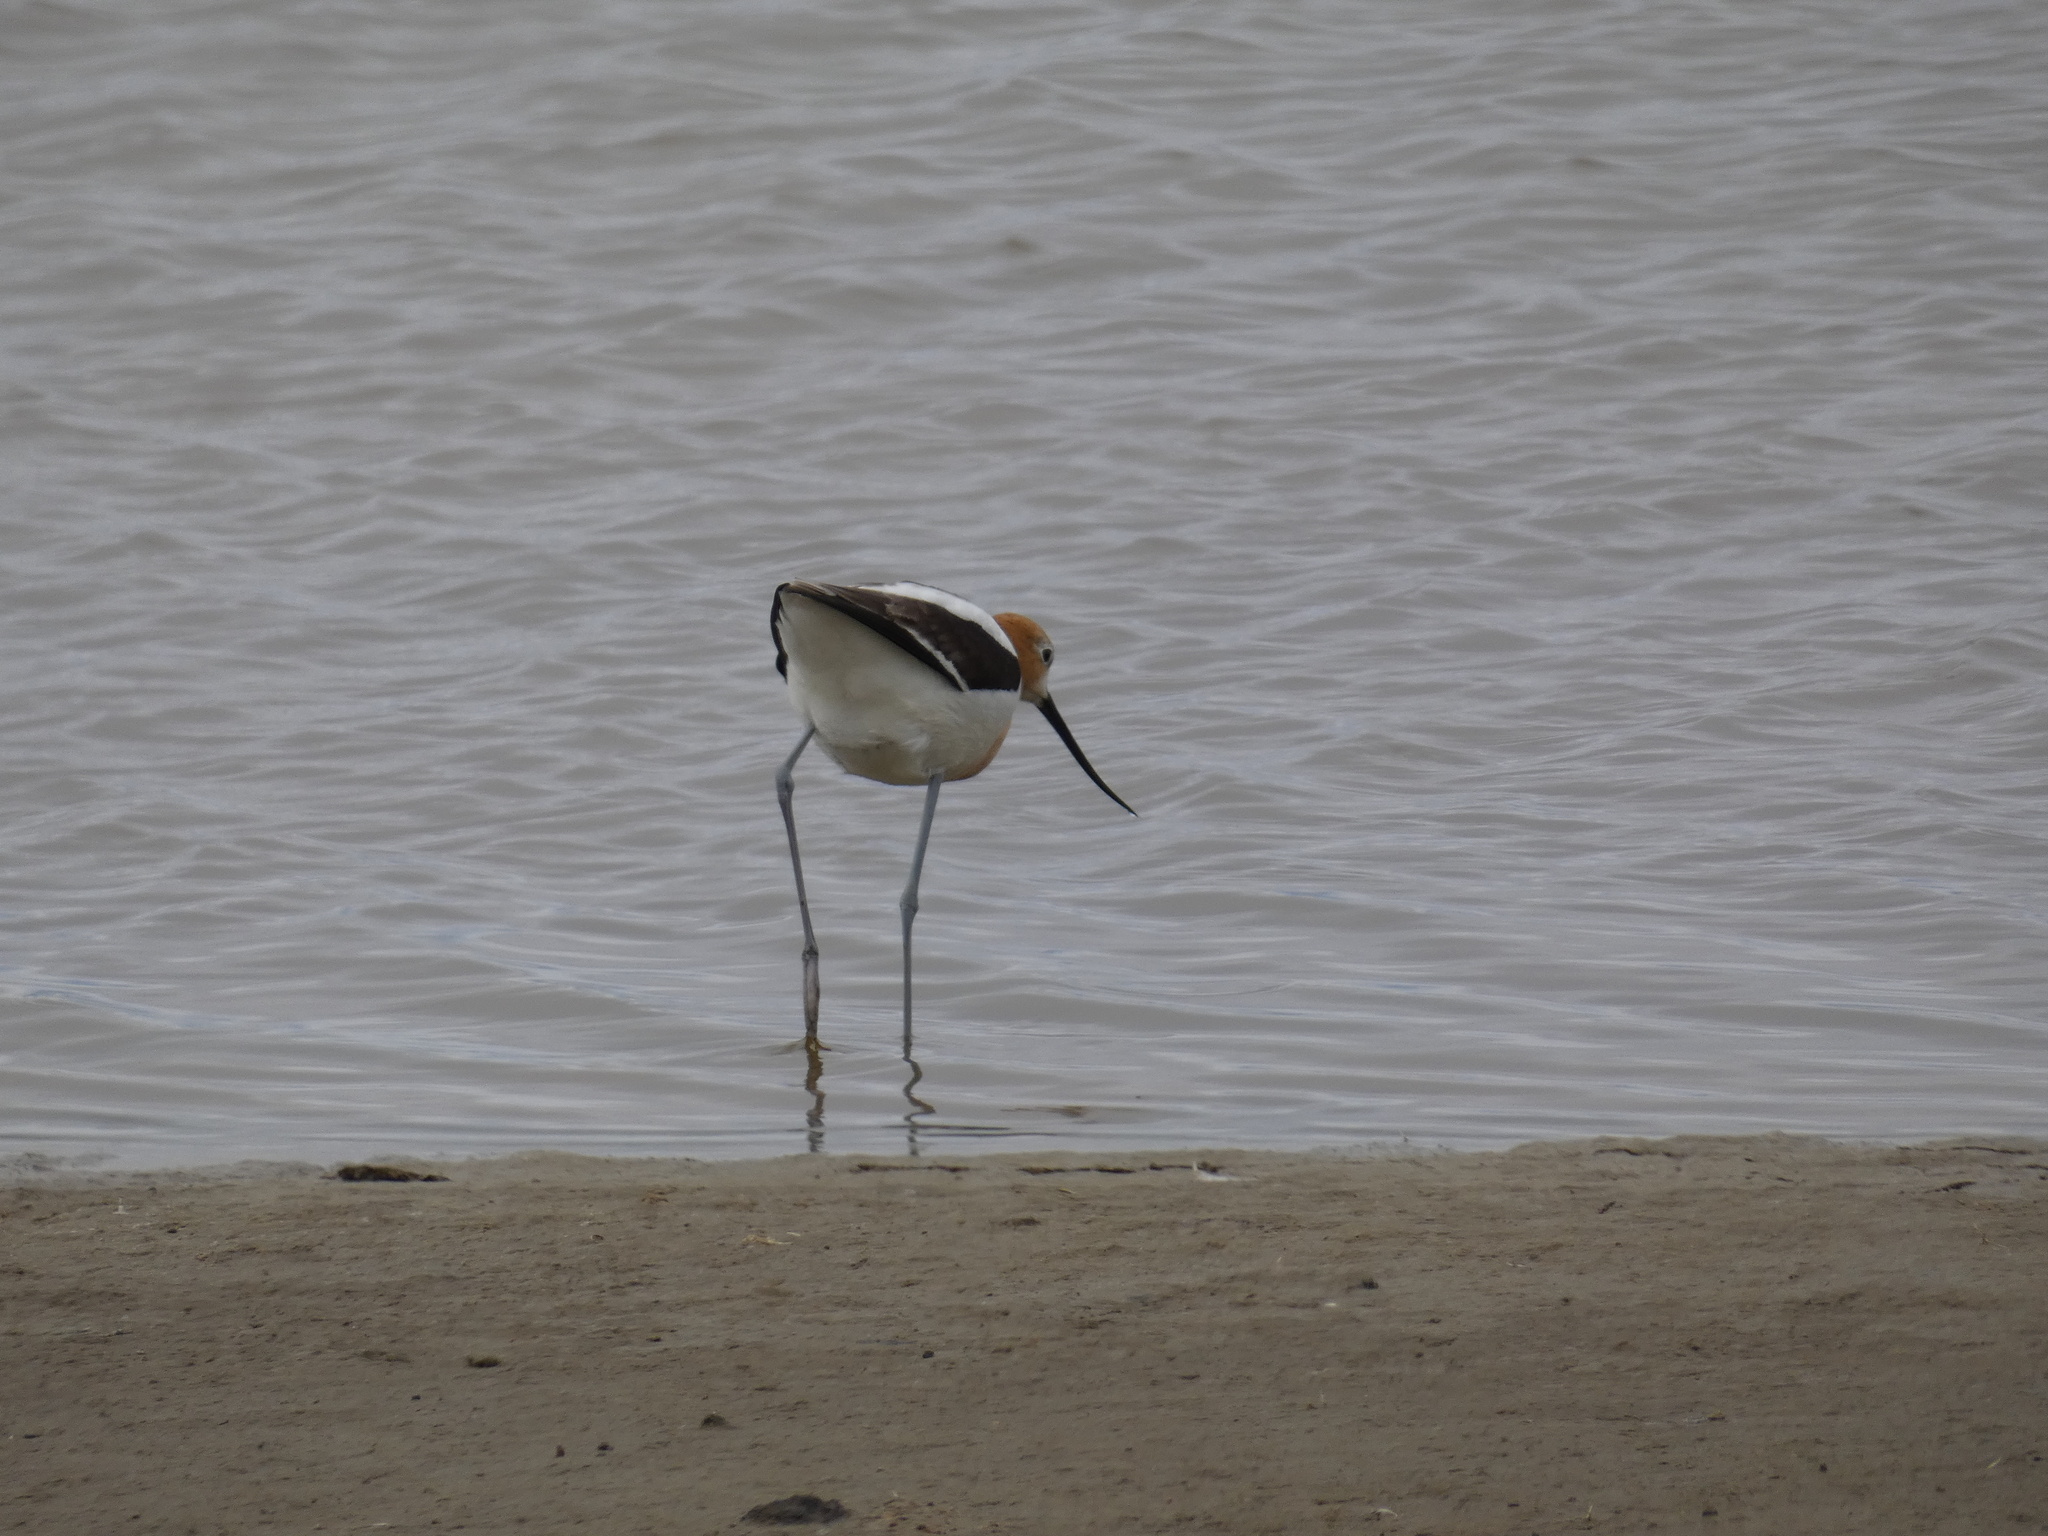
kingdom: Animalia
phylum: Chordata
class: Aves
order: Charadriiformes
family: Recurvirostridae
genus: Recurvirostra
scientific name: Recurvirostra americana
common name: American avocet
